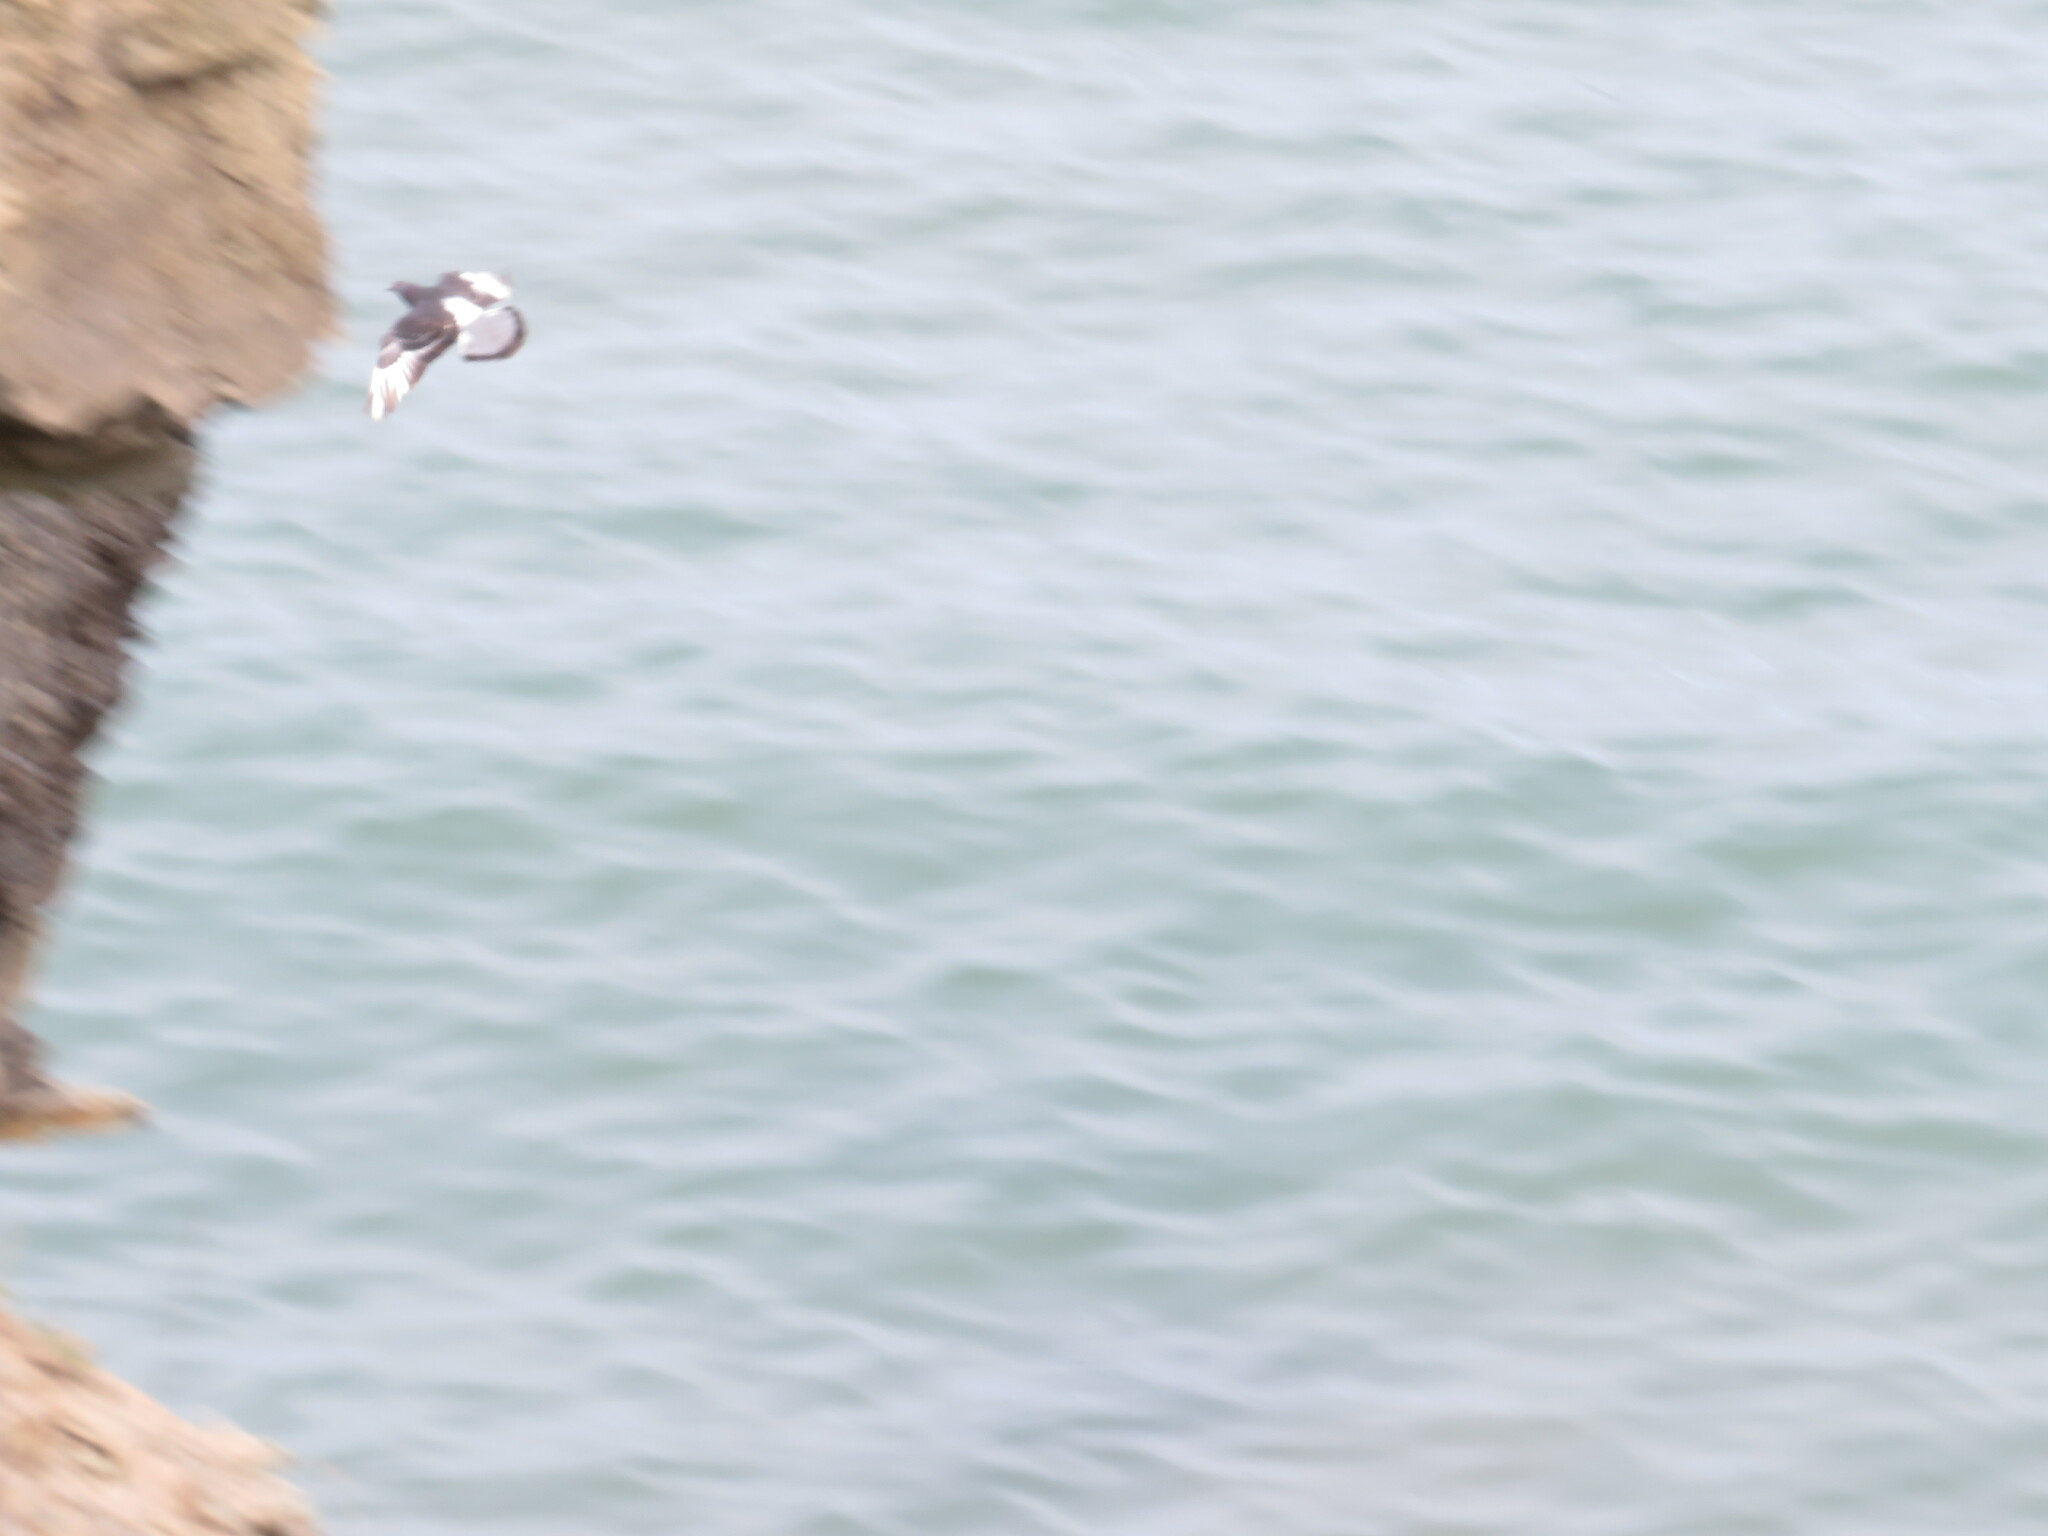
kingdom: Animalia
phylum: Chordata
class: Aves
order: Columbiformes
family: Columbidae
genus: Columba
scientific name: Columba livia
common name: Rock pigeon
